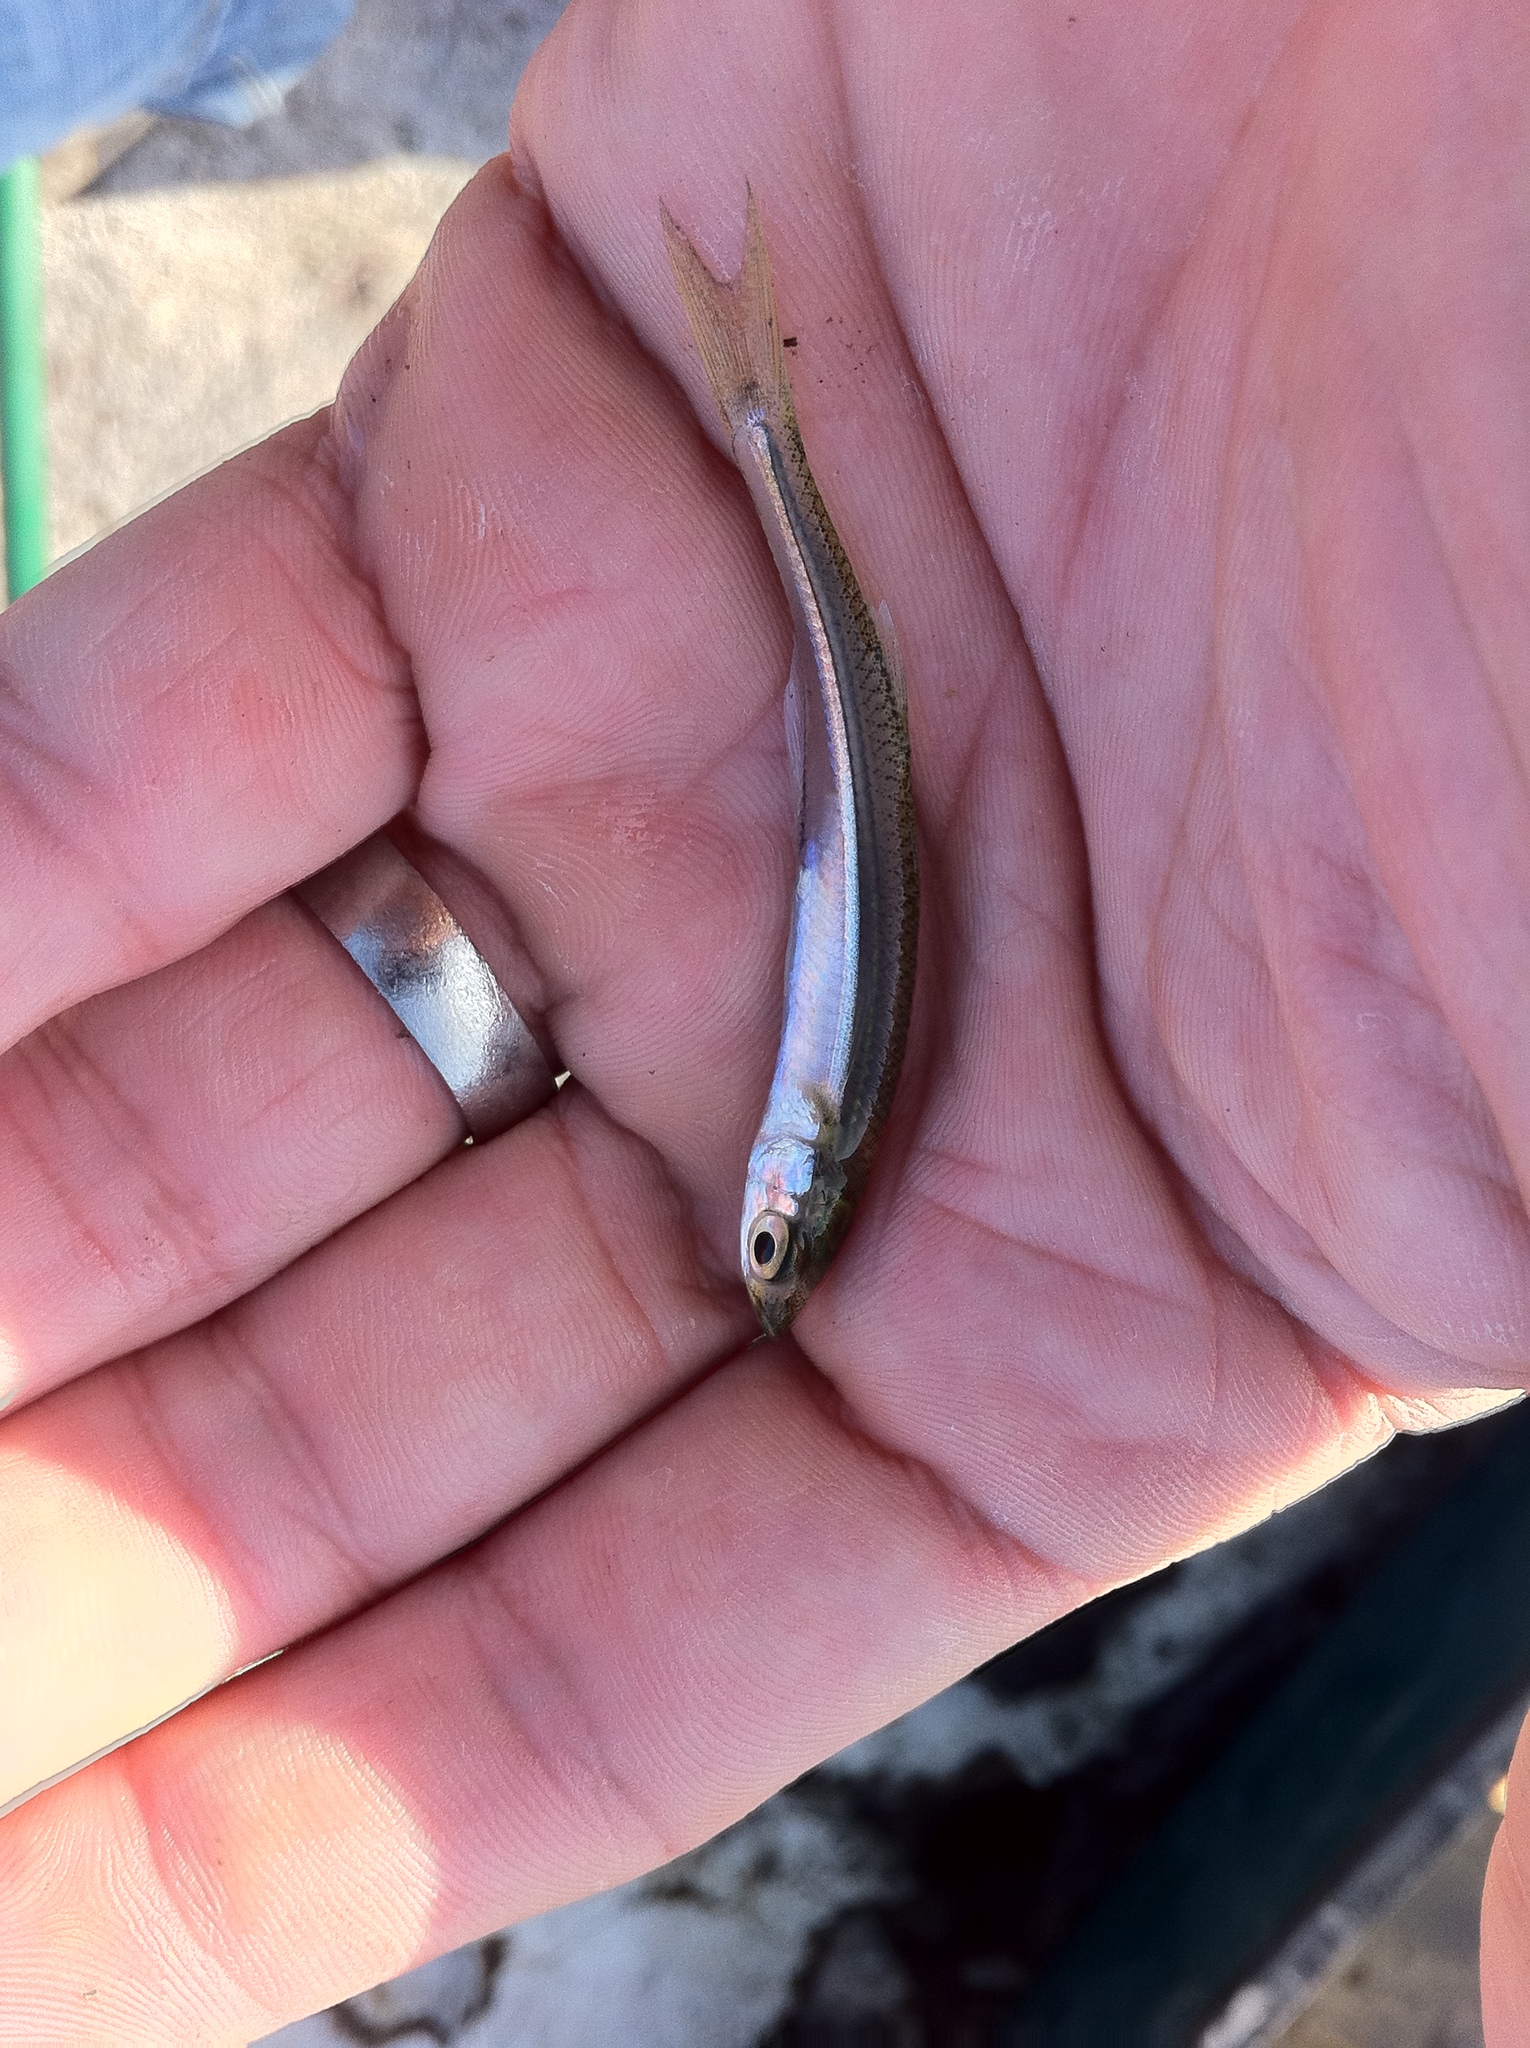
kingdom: Animalia
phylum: Chordata
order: Atheriniformes
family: Atherinopsidae
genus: Menidia
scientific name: Menidia beryllina
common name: Inland silverside
